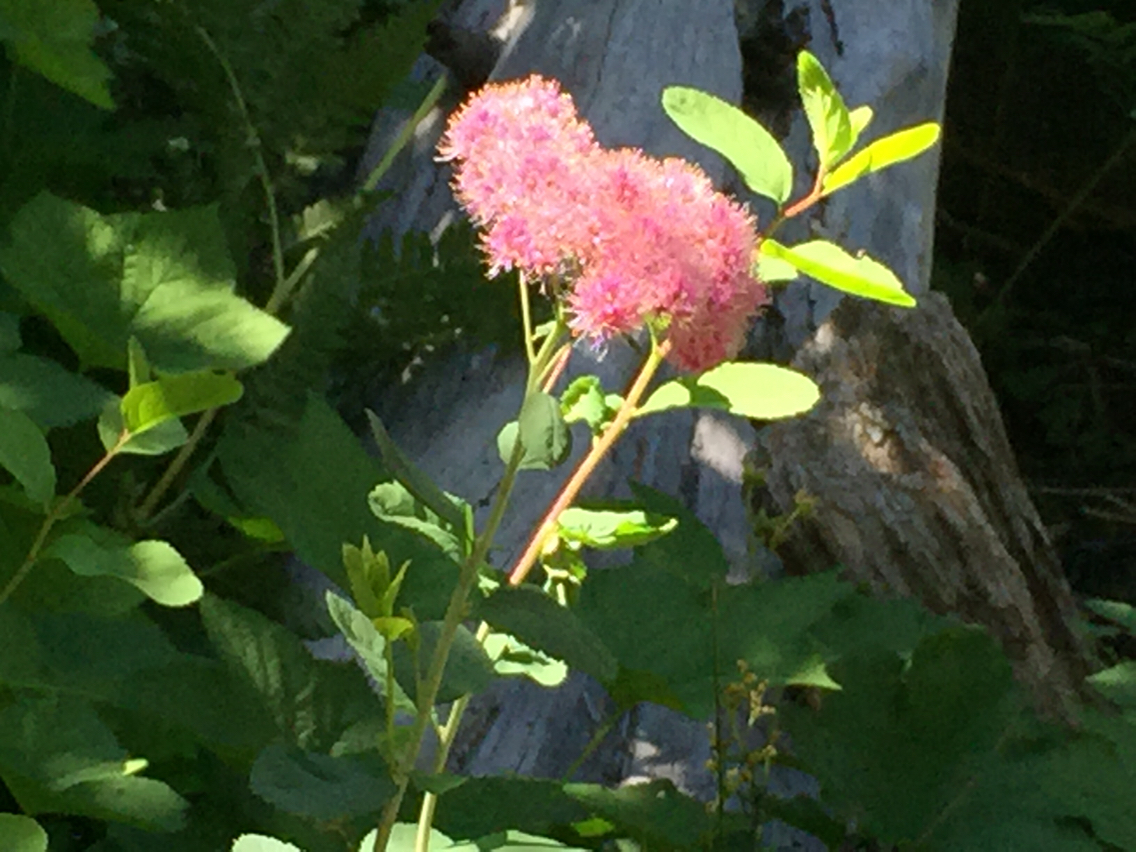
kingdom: Plantae
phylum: Tracheophyta
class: Magnoliopsida
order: Rosales
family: Rosaceae
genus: Spiraea
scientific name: Spiraea splendens
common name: Subalpine meadowsweet
